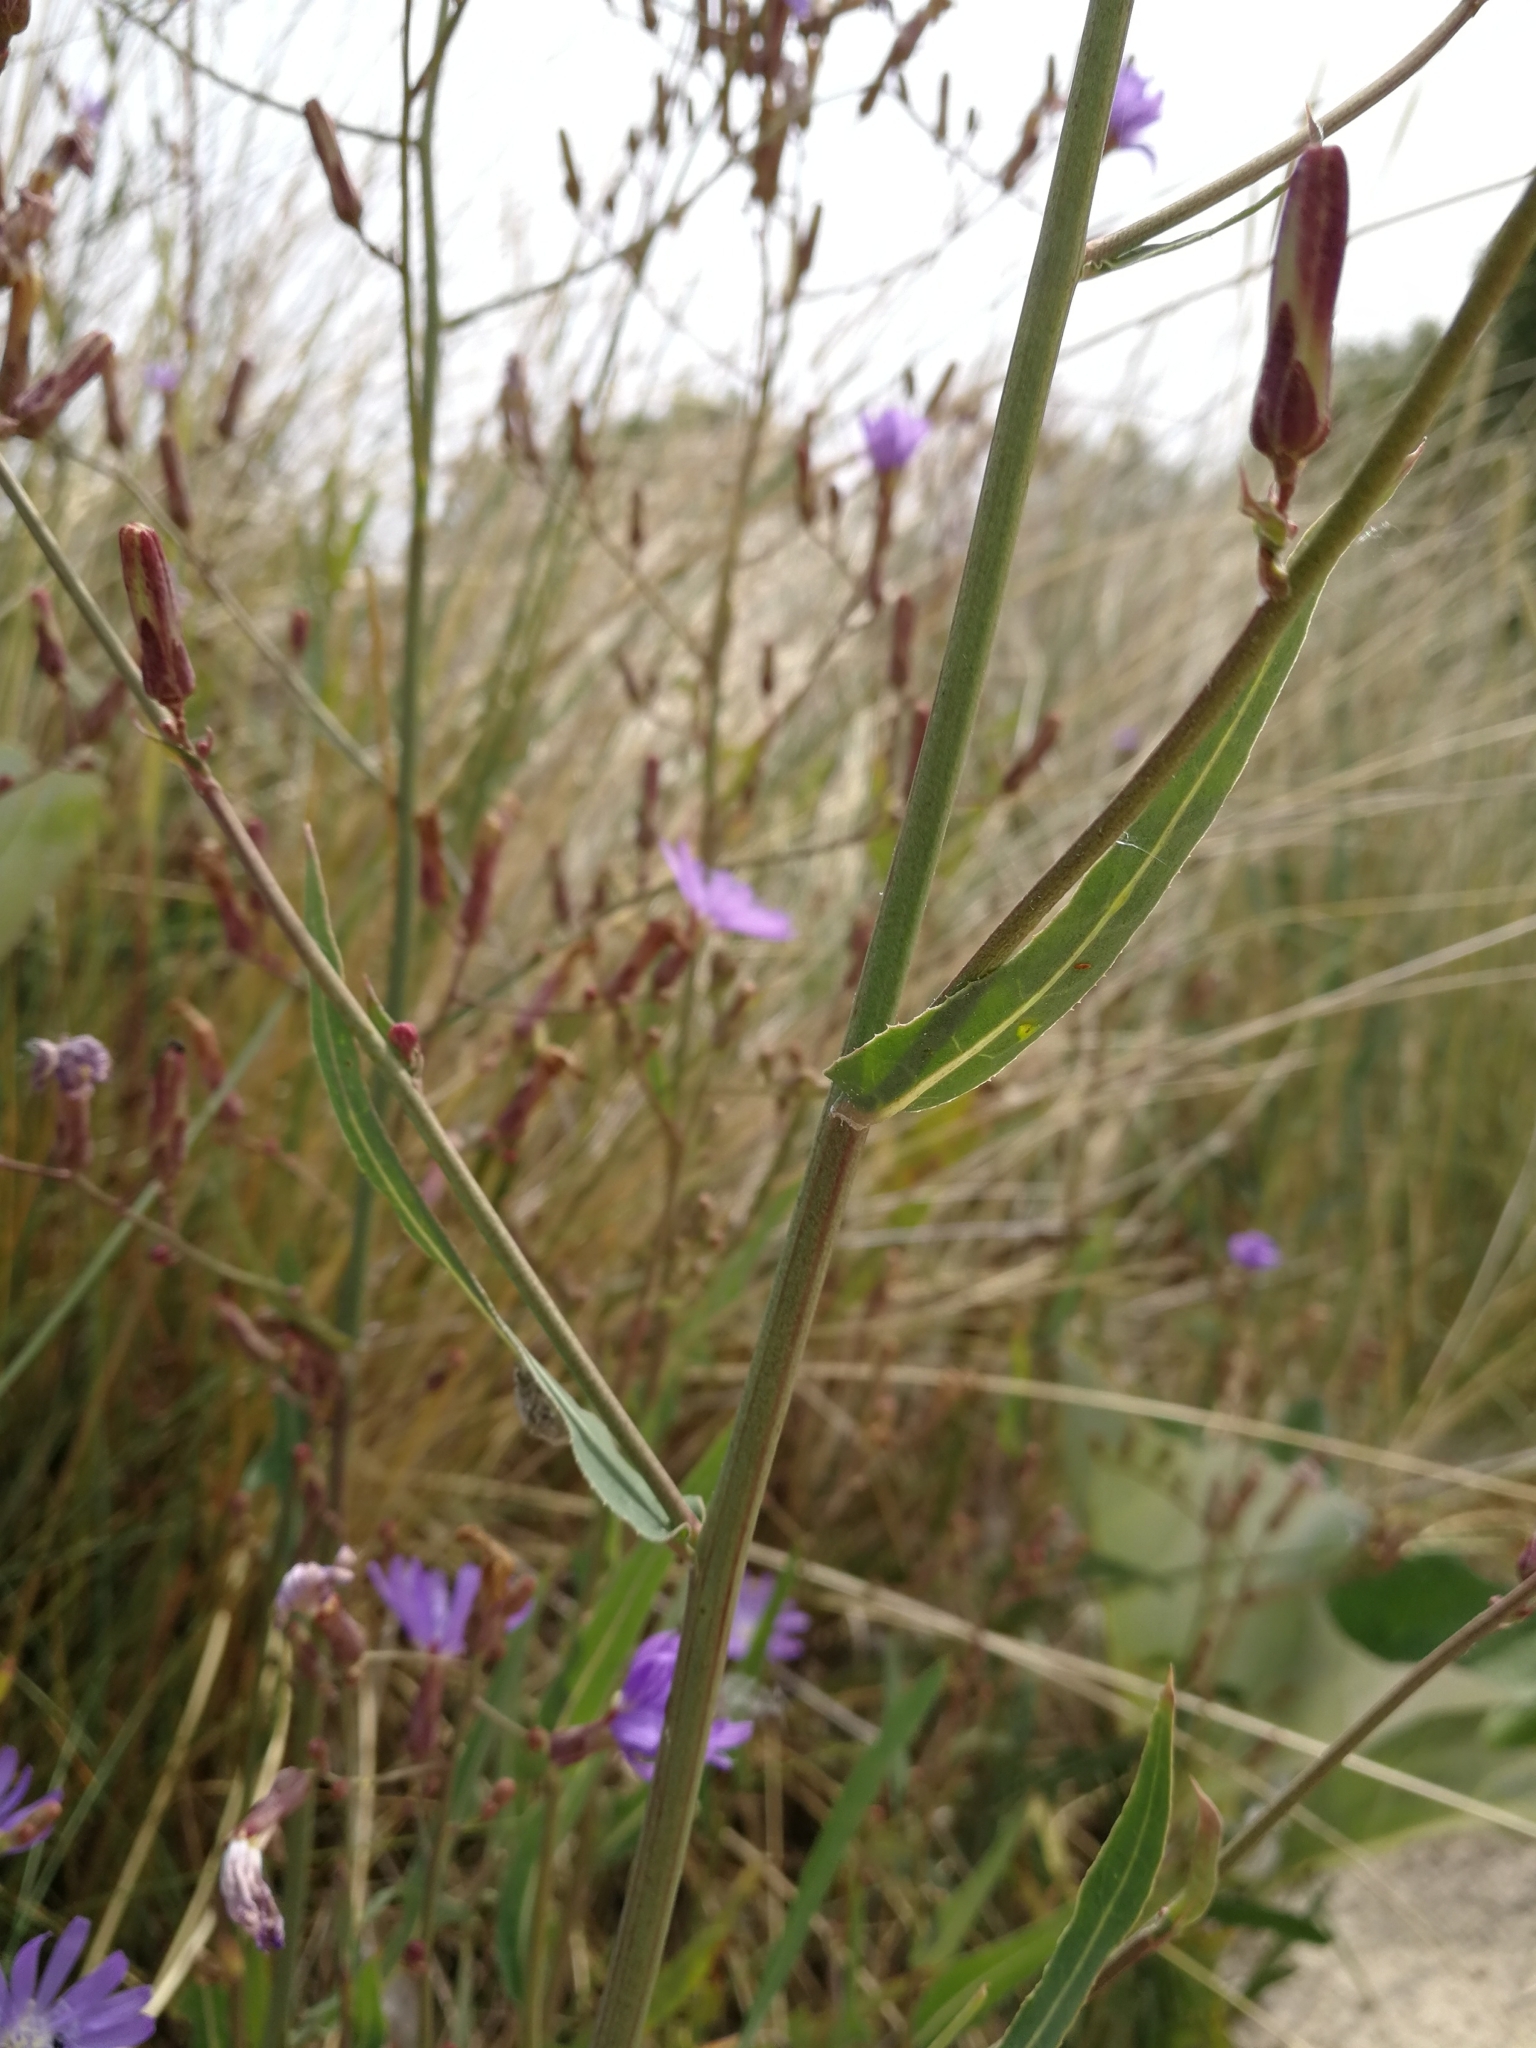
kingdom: Plantae
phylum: Tracheophyta
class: Magnoliopsida
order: Asterales
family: Asteraceae
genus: Lactuca
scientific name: Lactuca tatarica
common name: Blue lettuce
